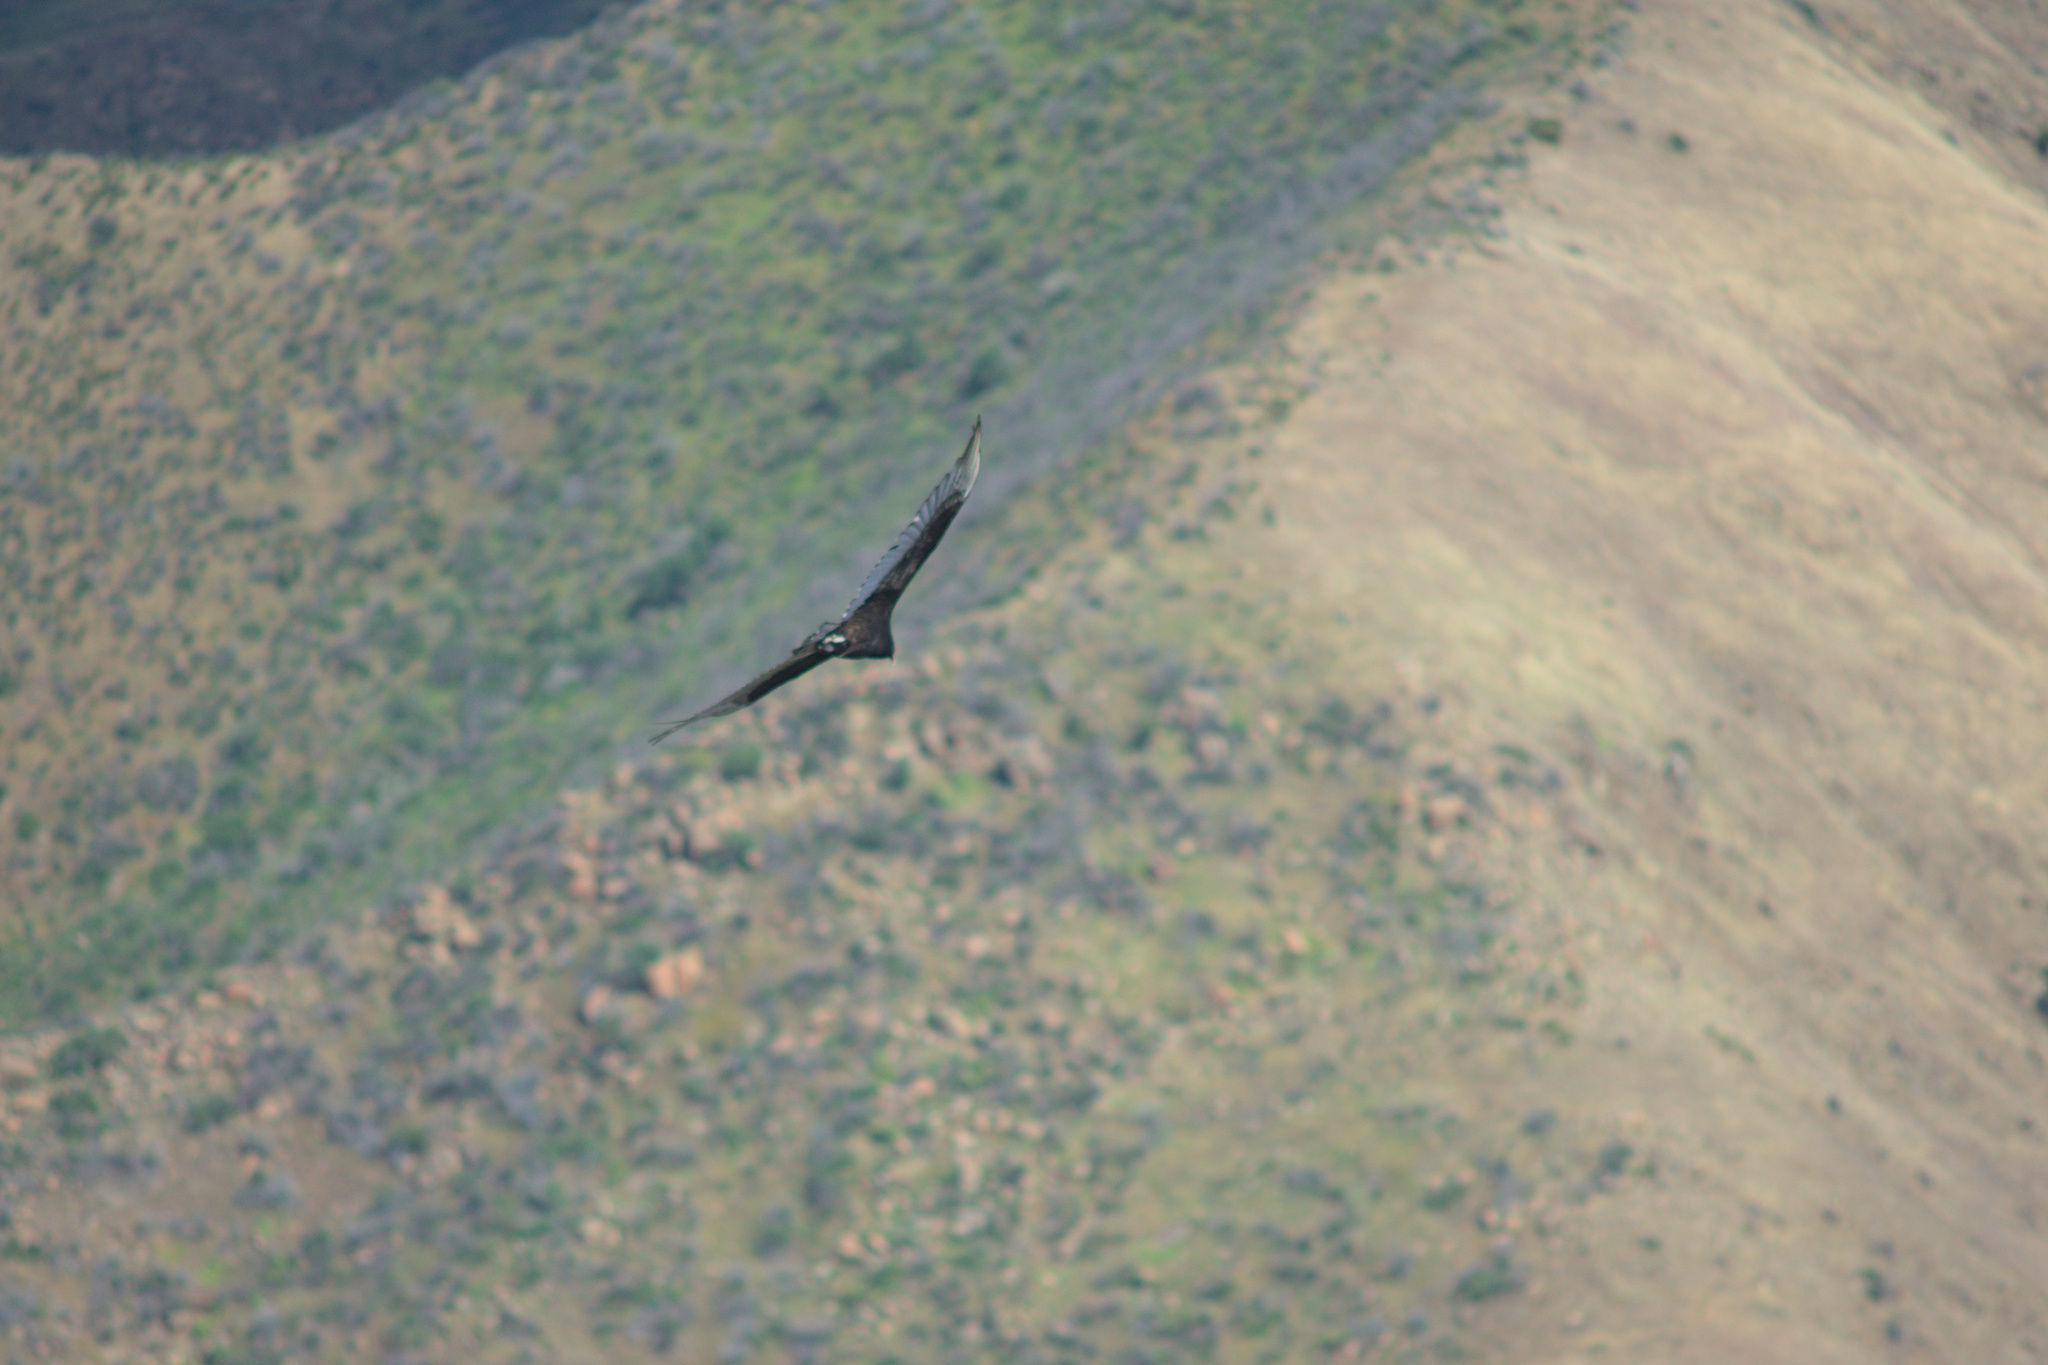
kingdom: Animalia
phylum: Chordata
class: Aves
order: Accipitriformes
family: Cathartidae
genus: Cathartes
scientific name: Cathartes aura
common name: Turkey vulture
